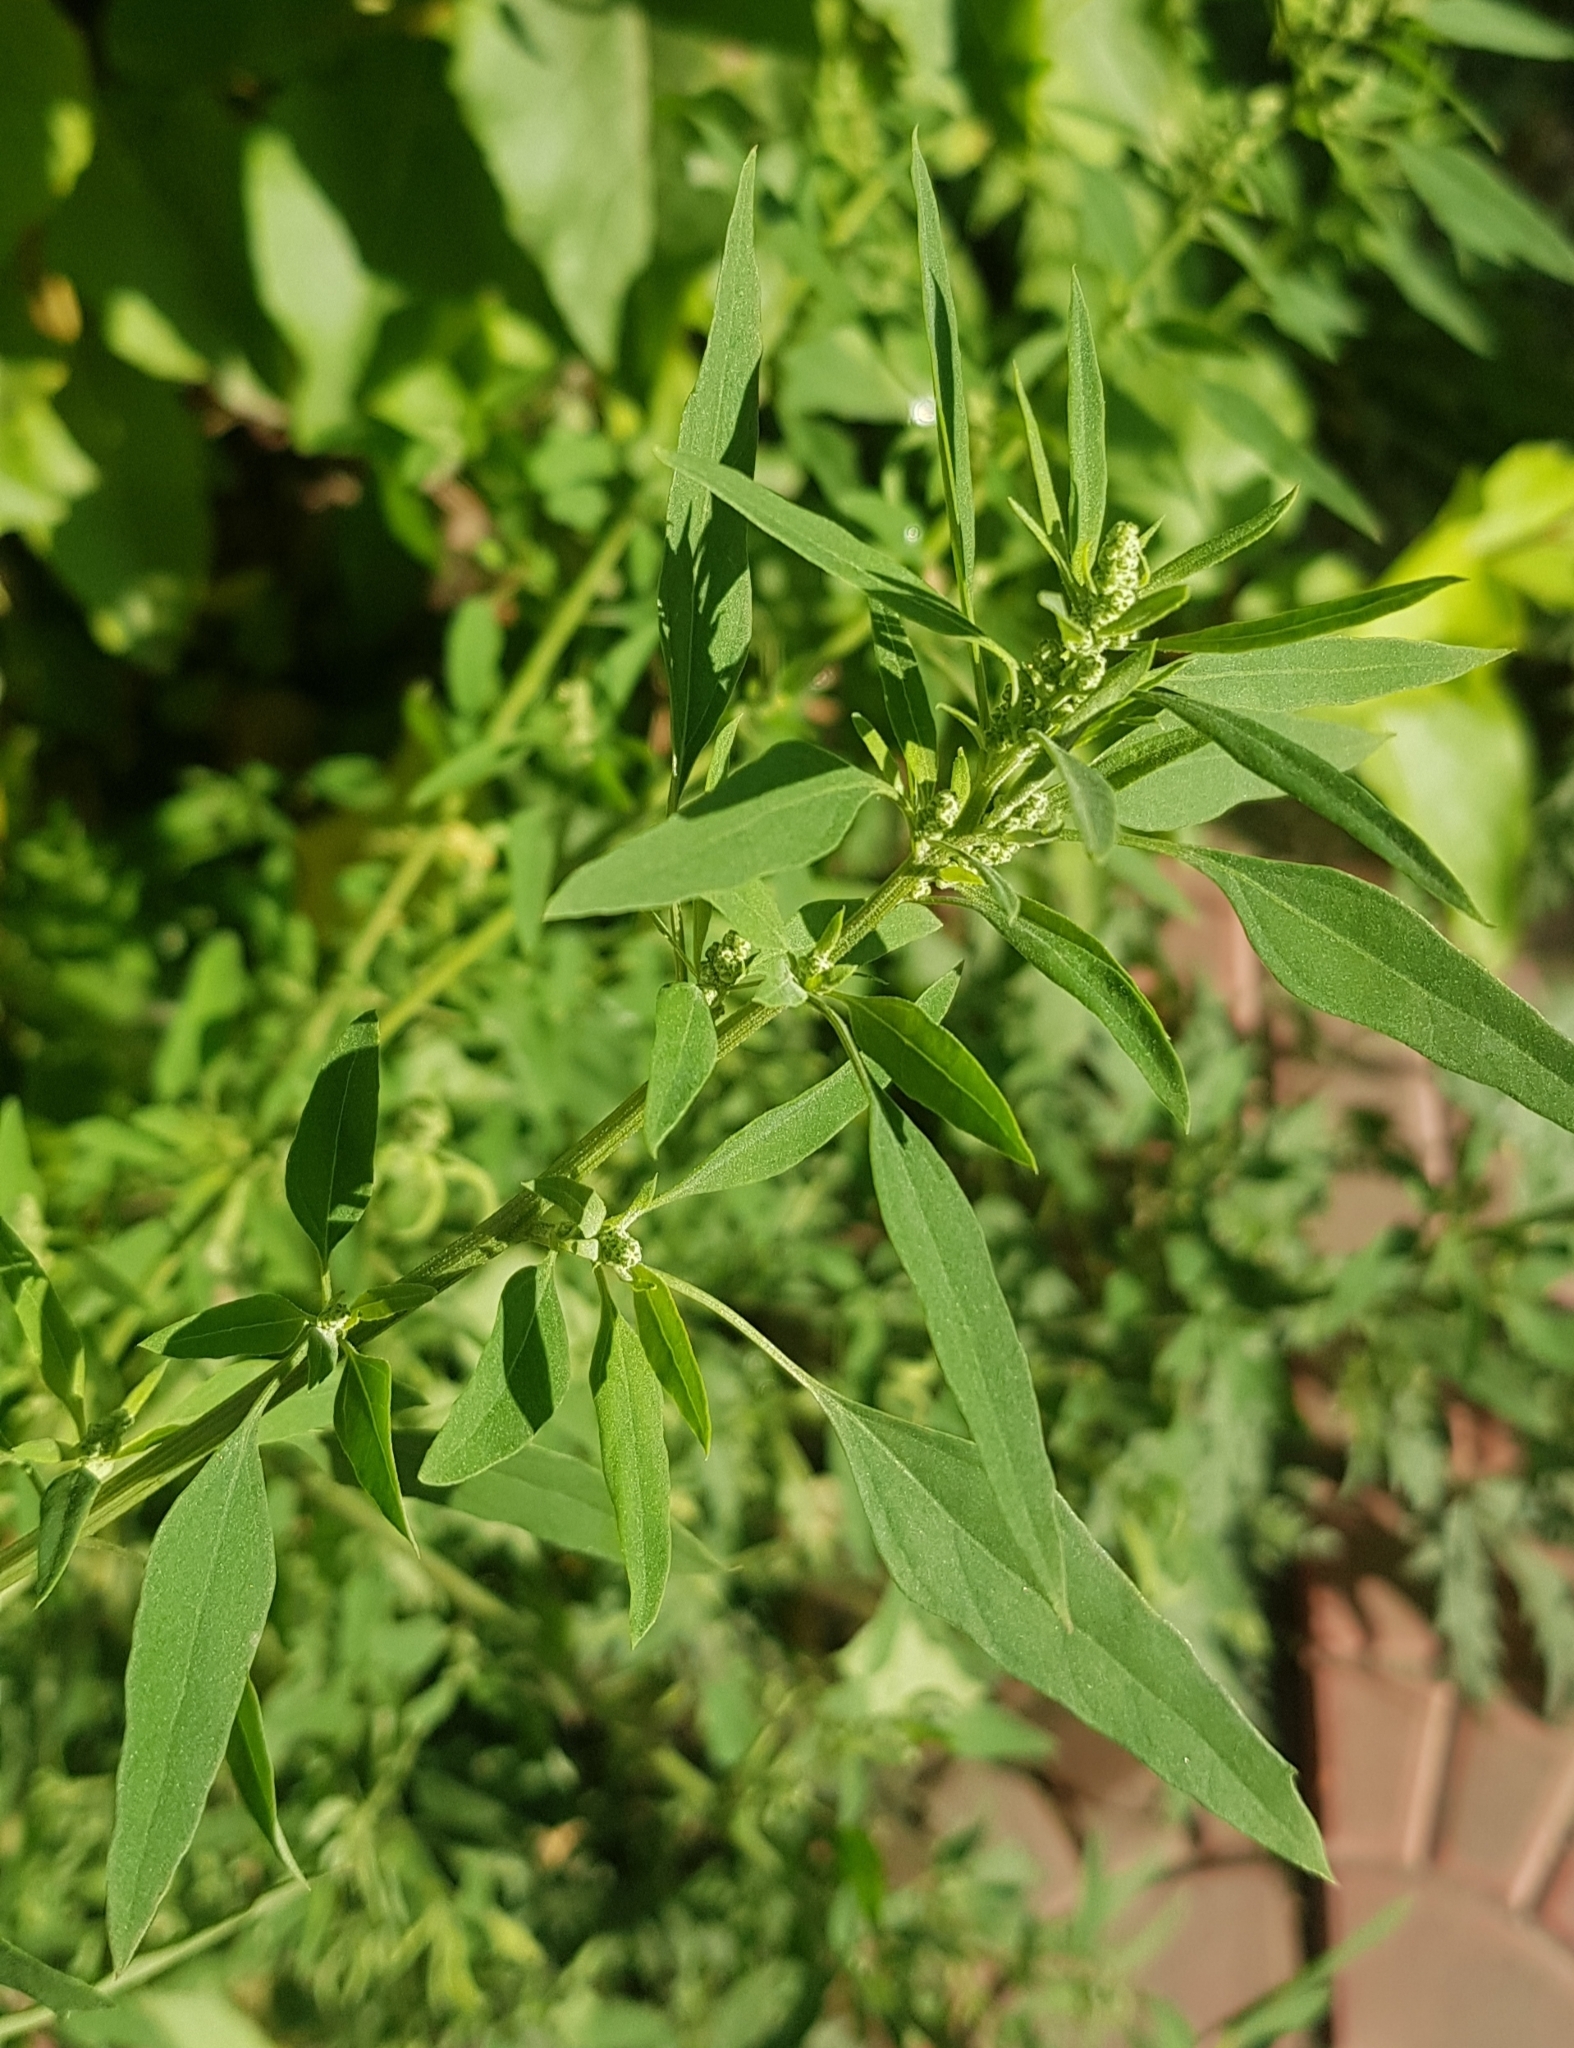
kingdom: Plantae
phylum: Tracheophyta
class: Magnoliopsida
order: Caryophyllales
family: Amaranthaceae
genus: Chenopodium
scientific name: Chenopodium betaceum
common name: Striped goosefoot
